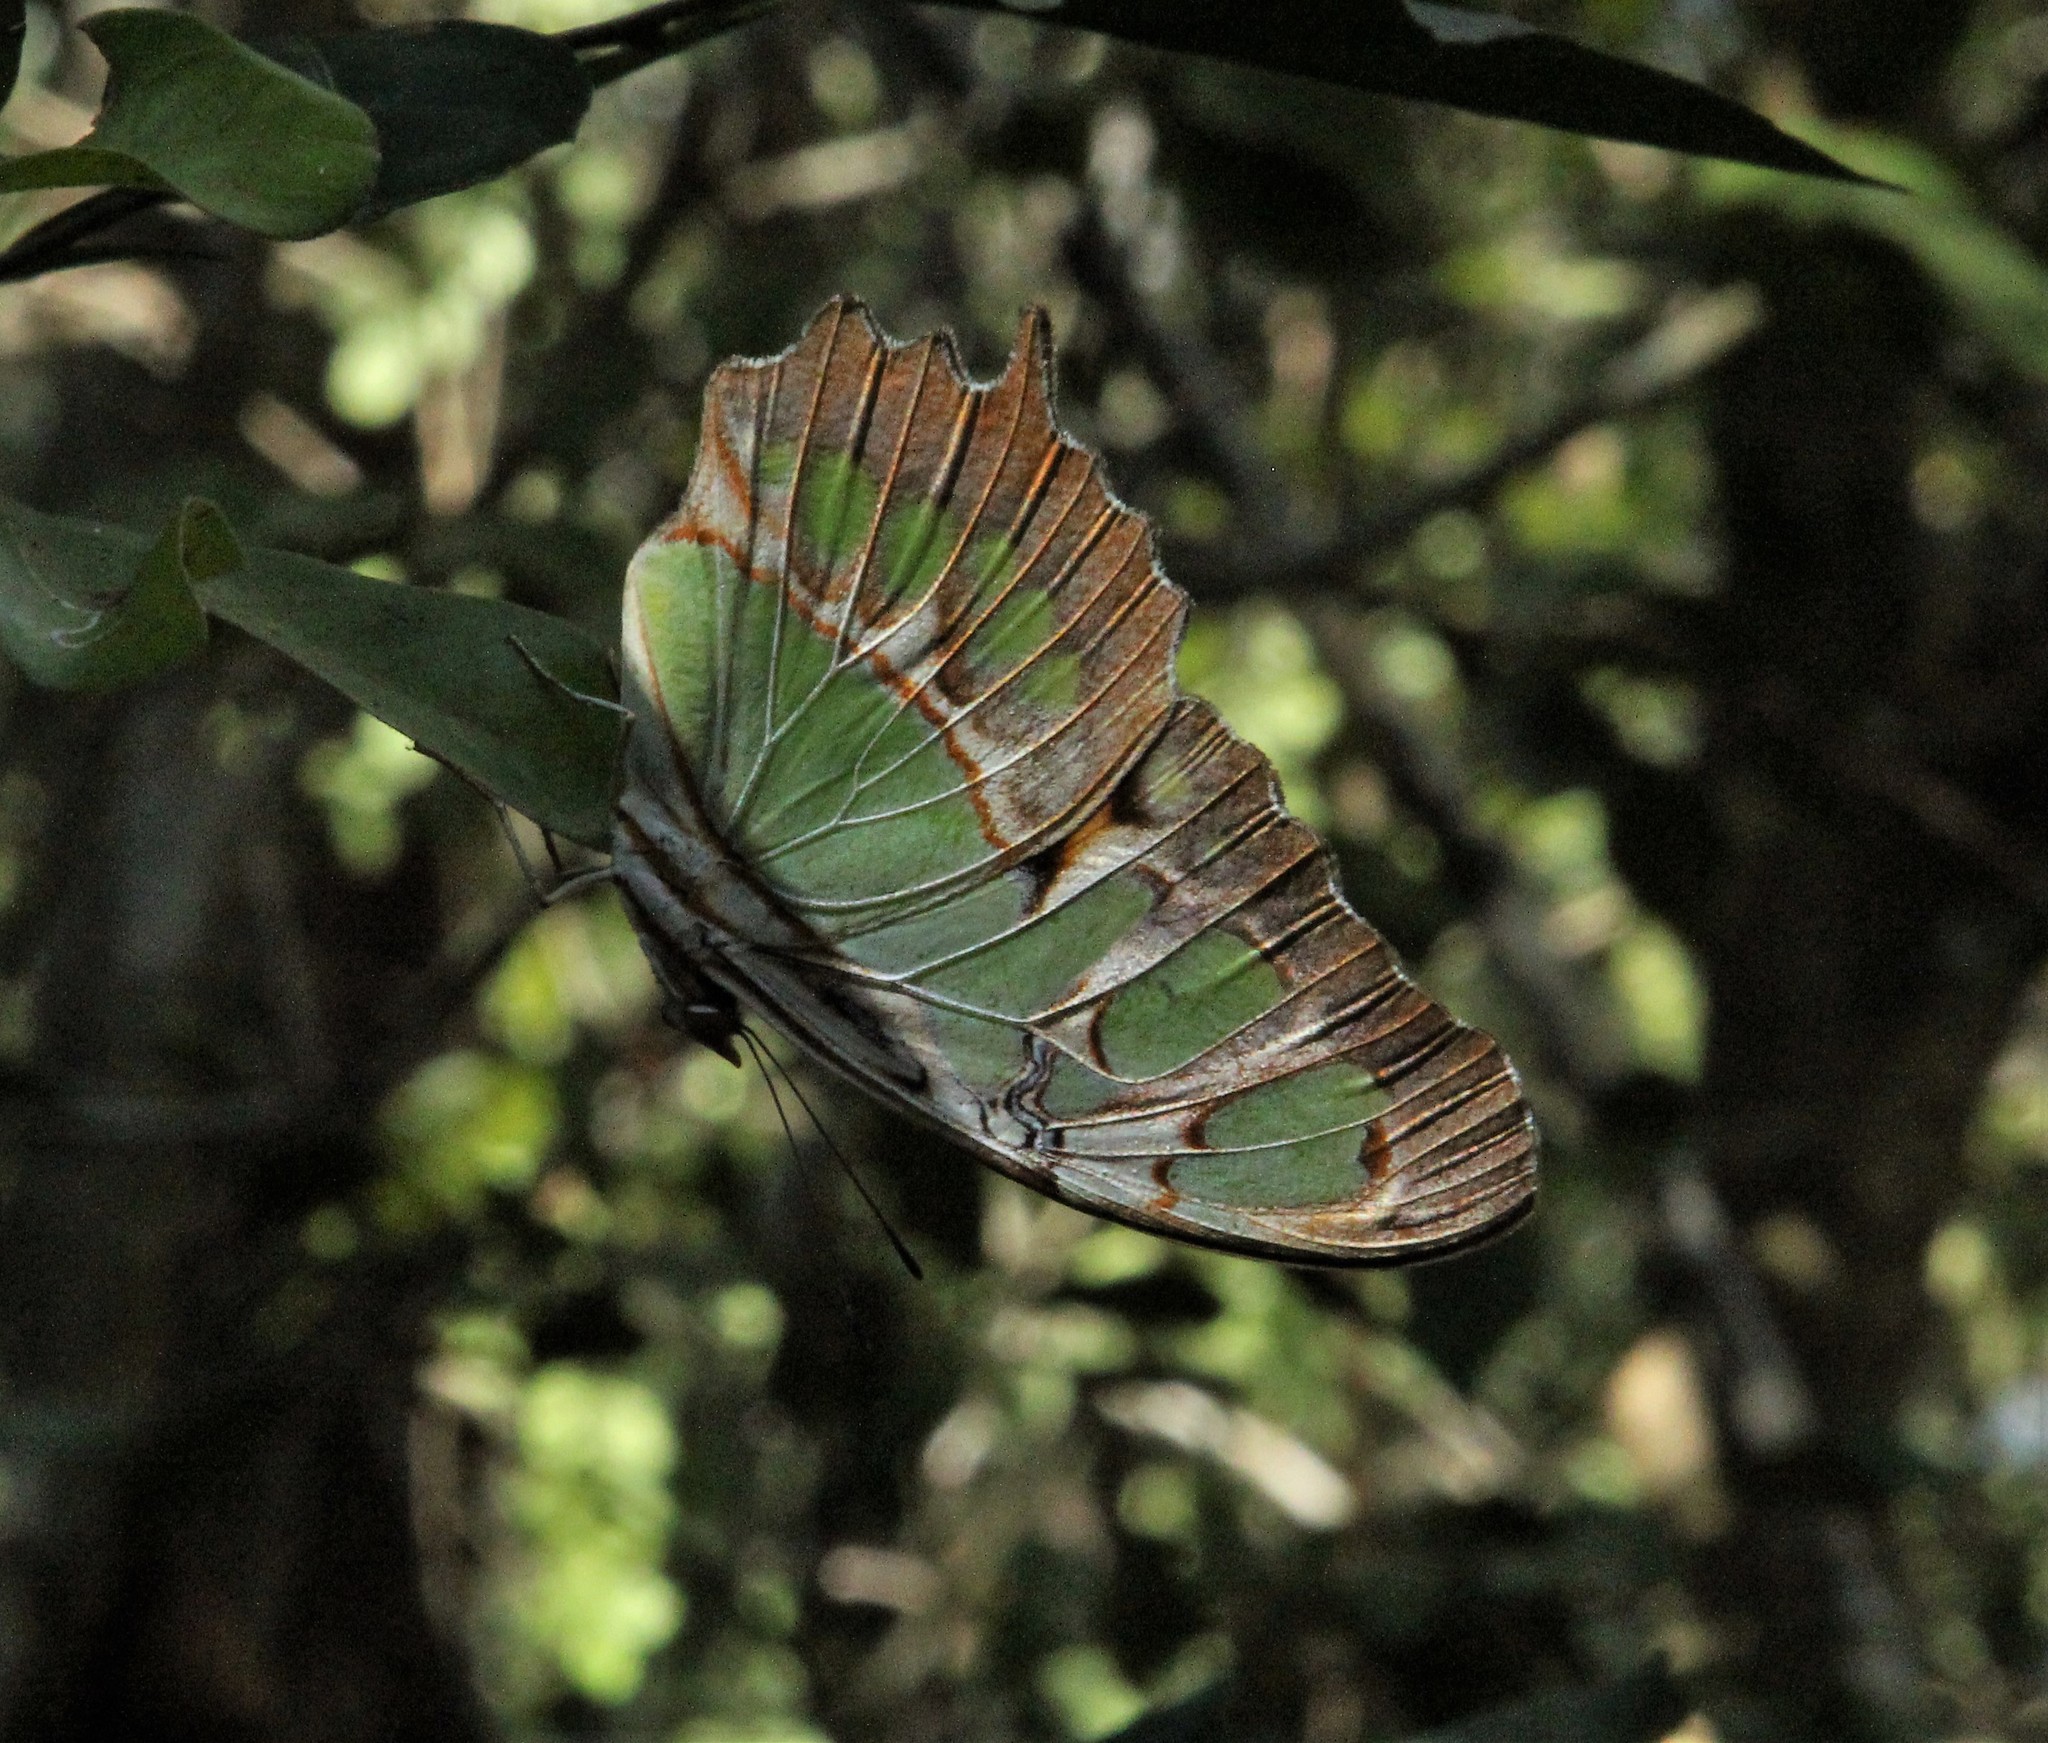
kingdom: Animalia
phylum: Arthropoda
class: Insecta
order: Lepidoptera
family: Nymphalidae
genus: Siproeta
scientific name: Siproeta stelenes
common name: Malachite
